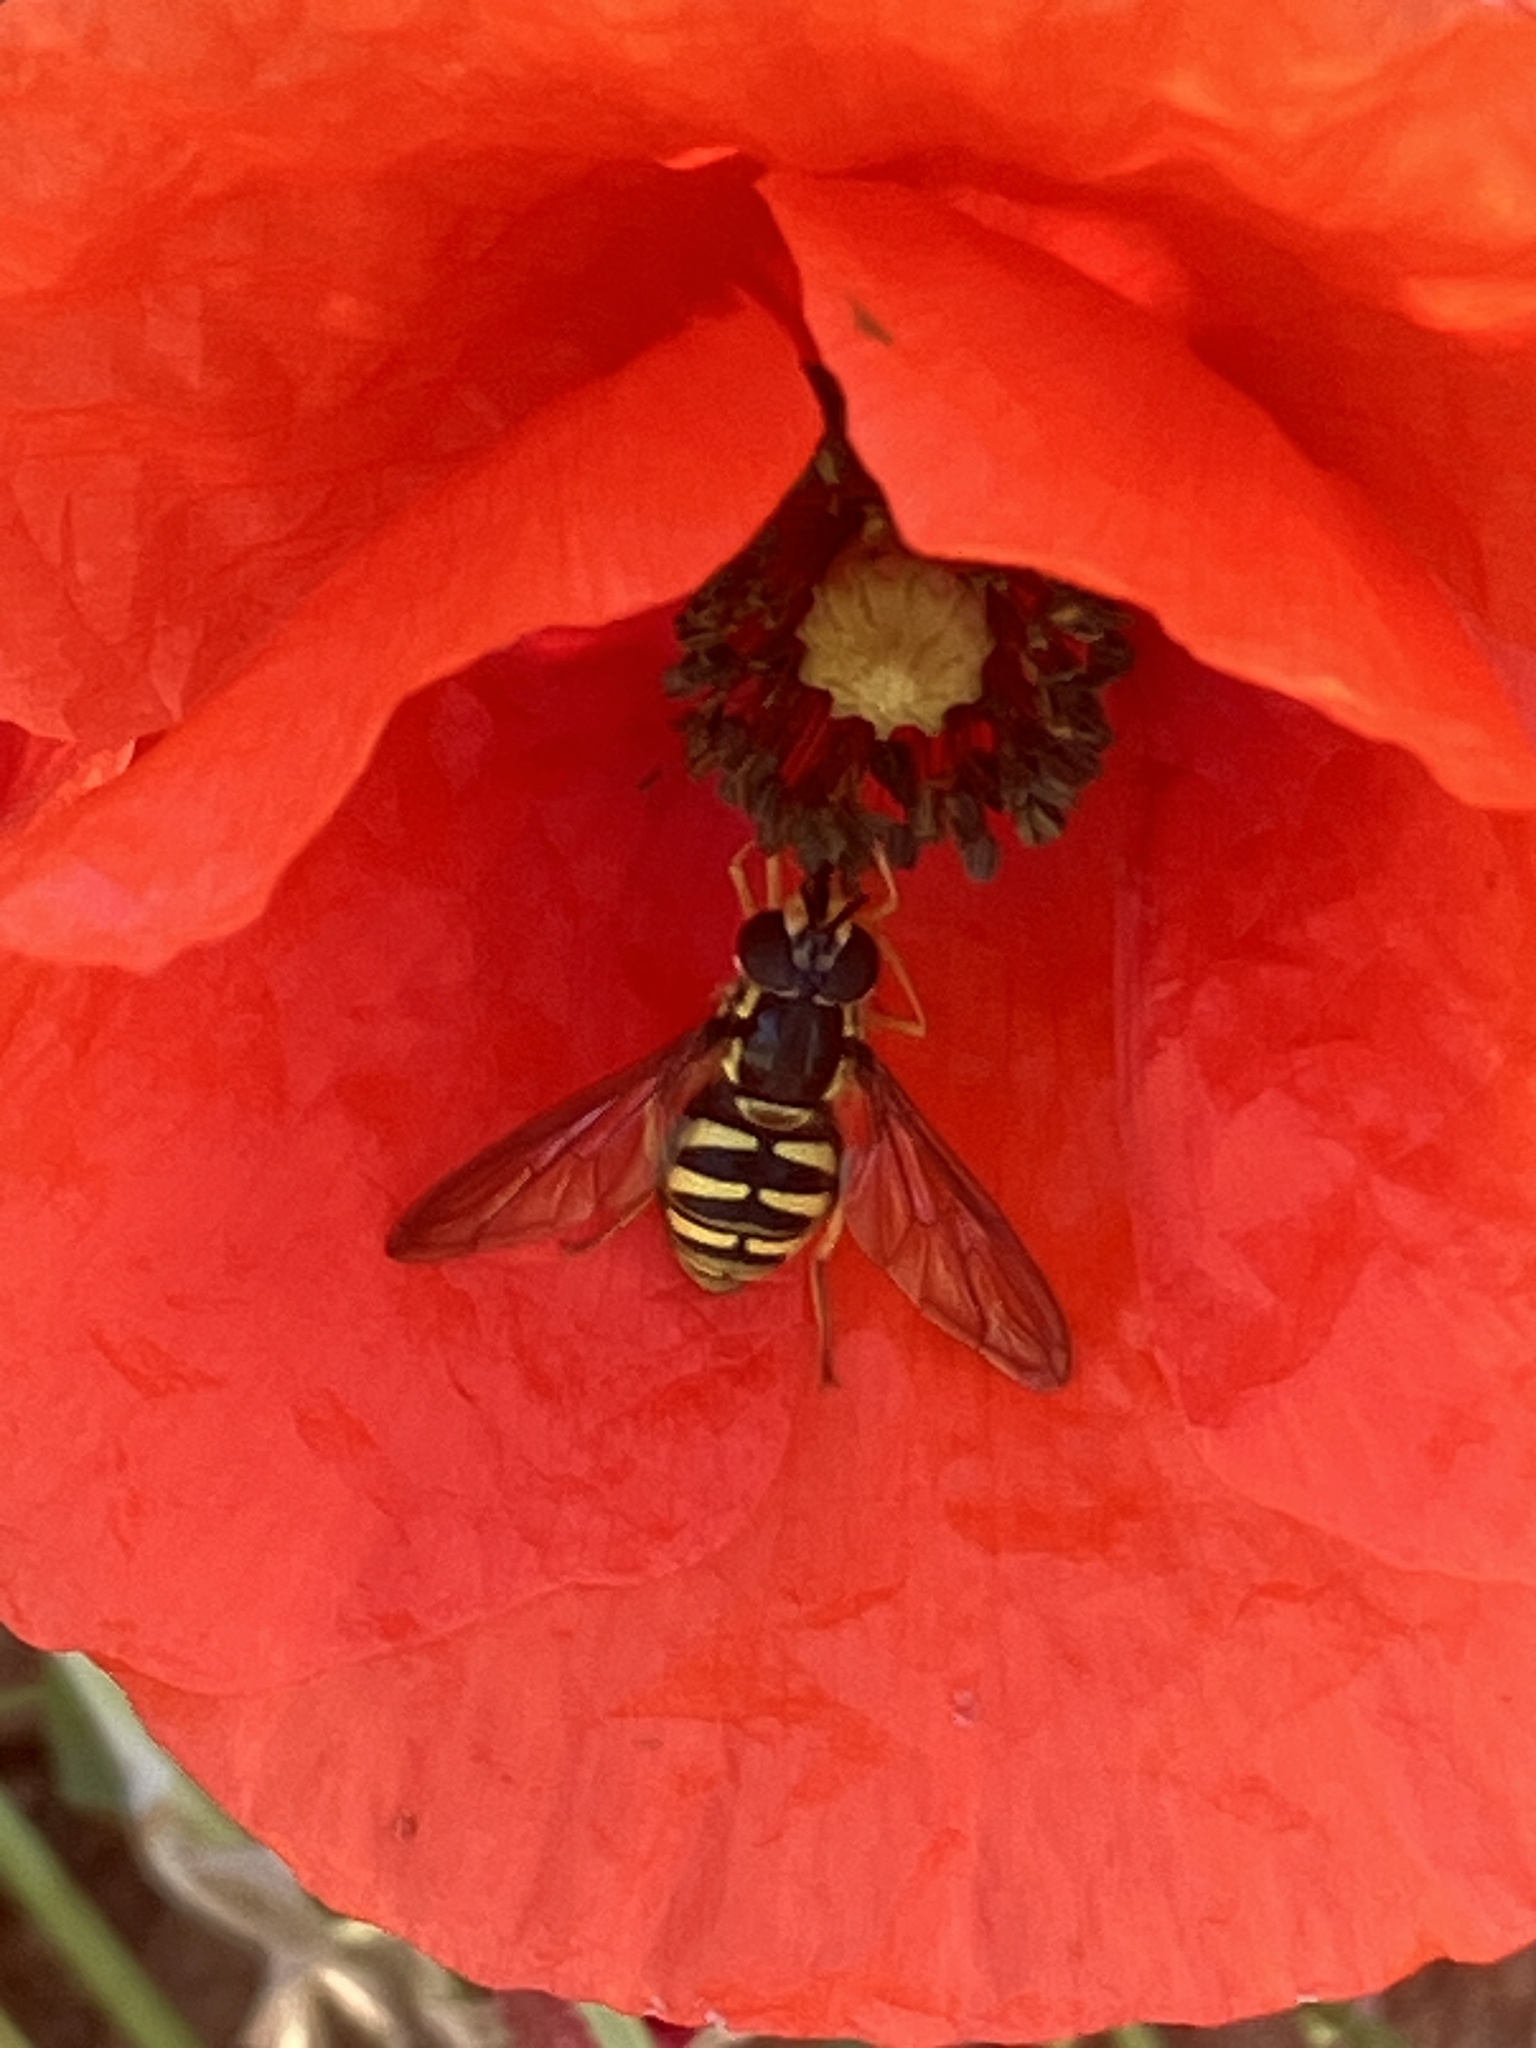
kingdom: Animalia
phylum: Arthropoda
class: Insecta
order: Diptera
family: Syrphidae
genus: Chrysotoxum
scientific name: Chrysotoxum cautum
